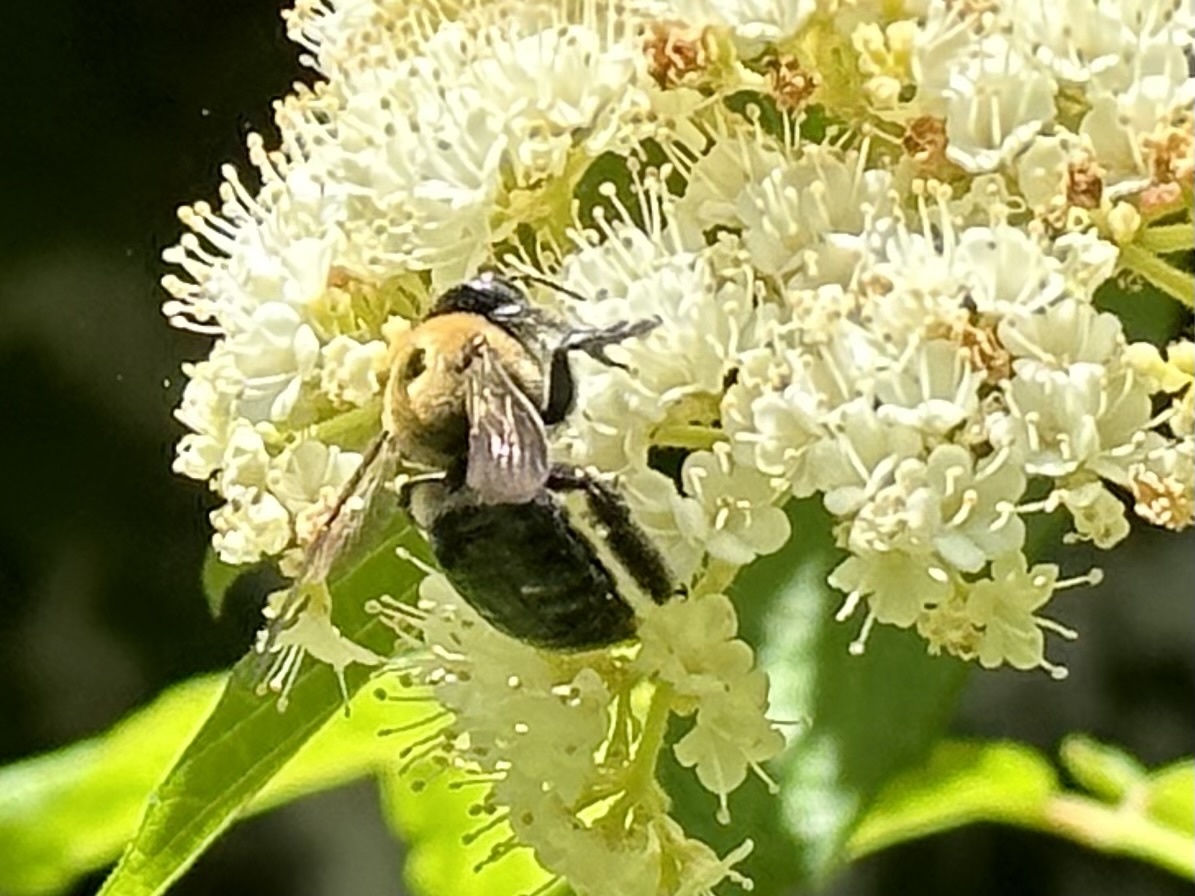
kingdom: Animalia
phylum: Arthropoda
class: Insecta
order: Hymenoptera
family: Apidae
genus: Xylocopa
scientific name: Xylocopa virginica
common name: Carpenter bee
